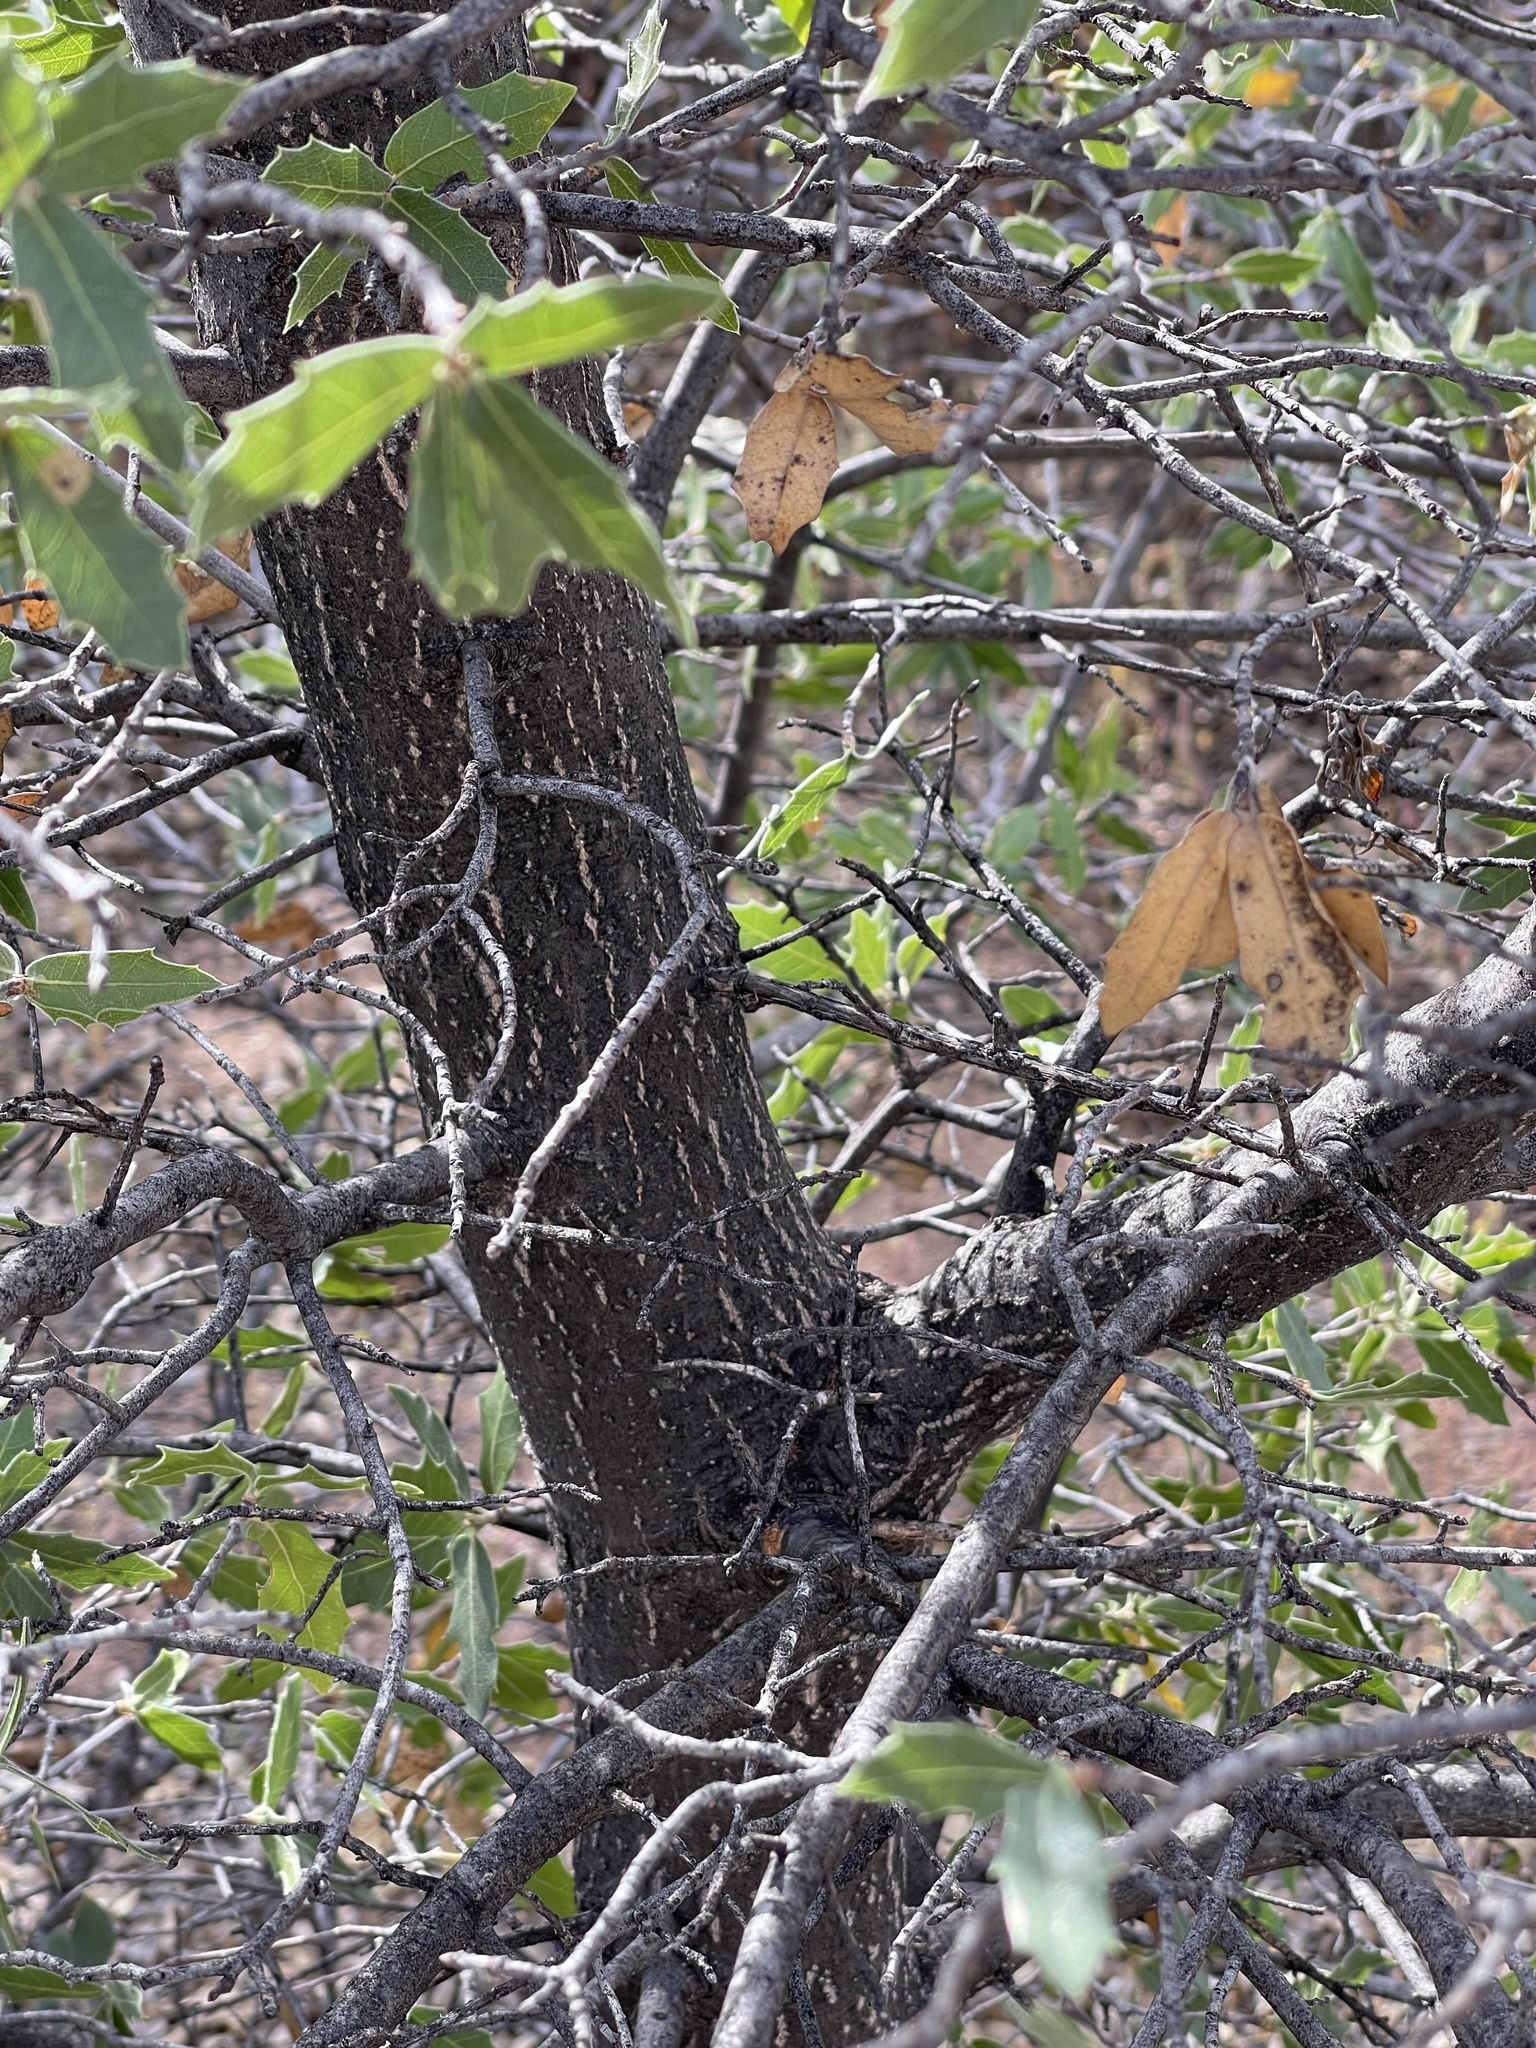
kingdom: Plantae
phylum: Tracheophyta
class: Magnoliopsida
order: Fagales
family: Fagaceae
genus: Quercus
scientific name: Quercus emoryi
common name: Emory oak
